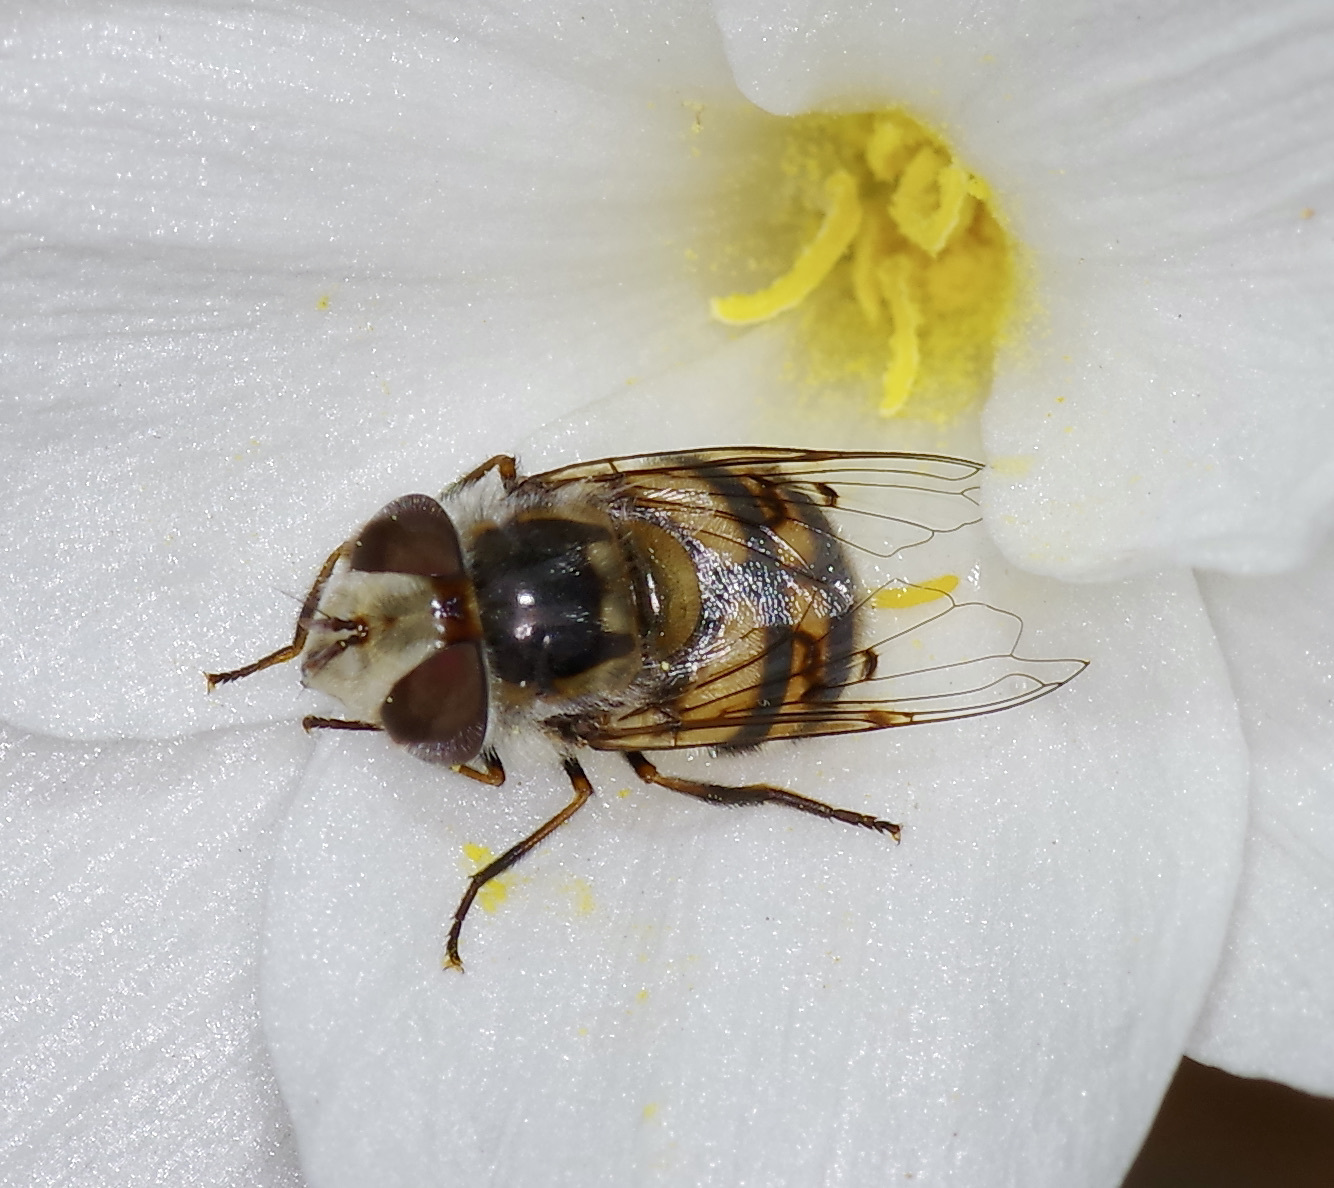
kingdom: Animalia
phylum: Arthropoda
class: Insecta
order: Diptera
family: Syrphidae
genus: Copestylum
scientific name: Copestylum avidum
